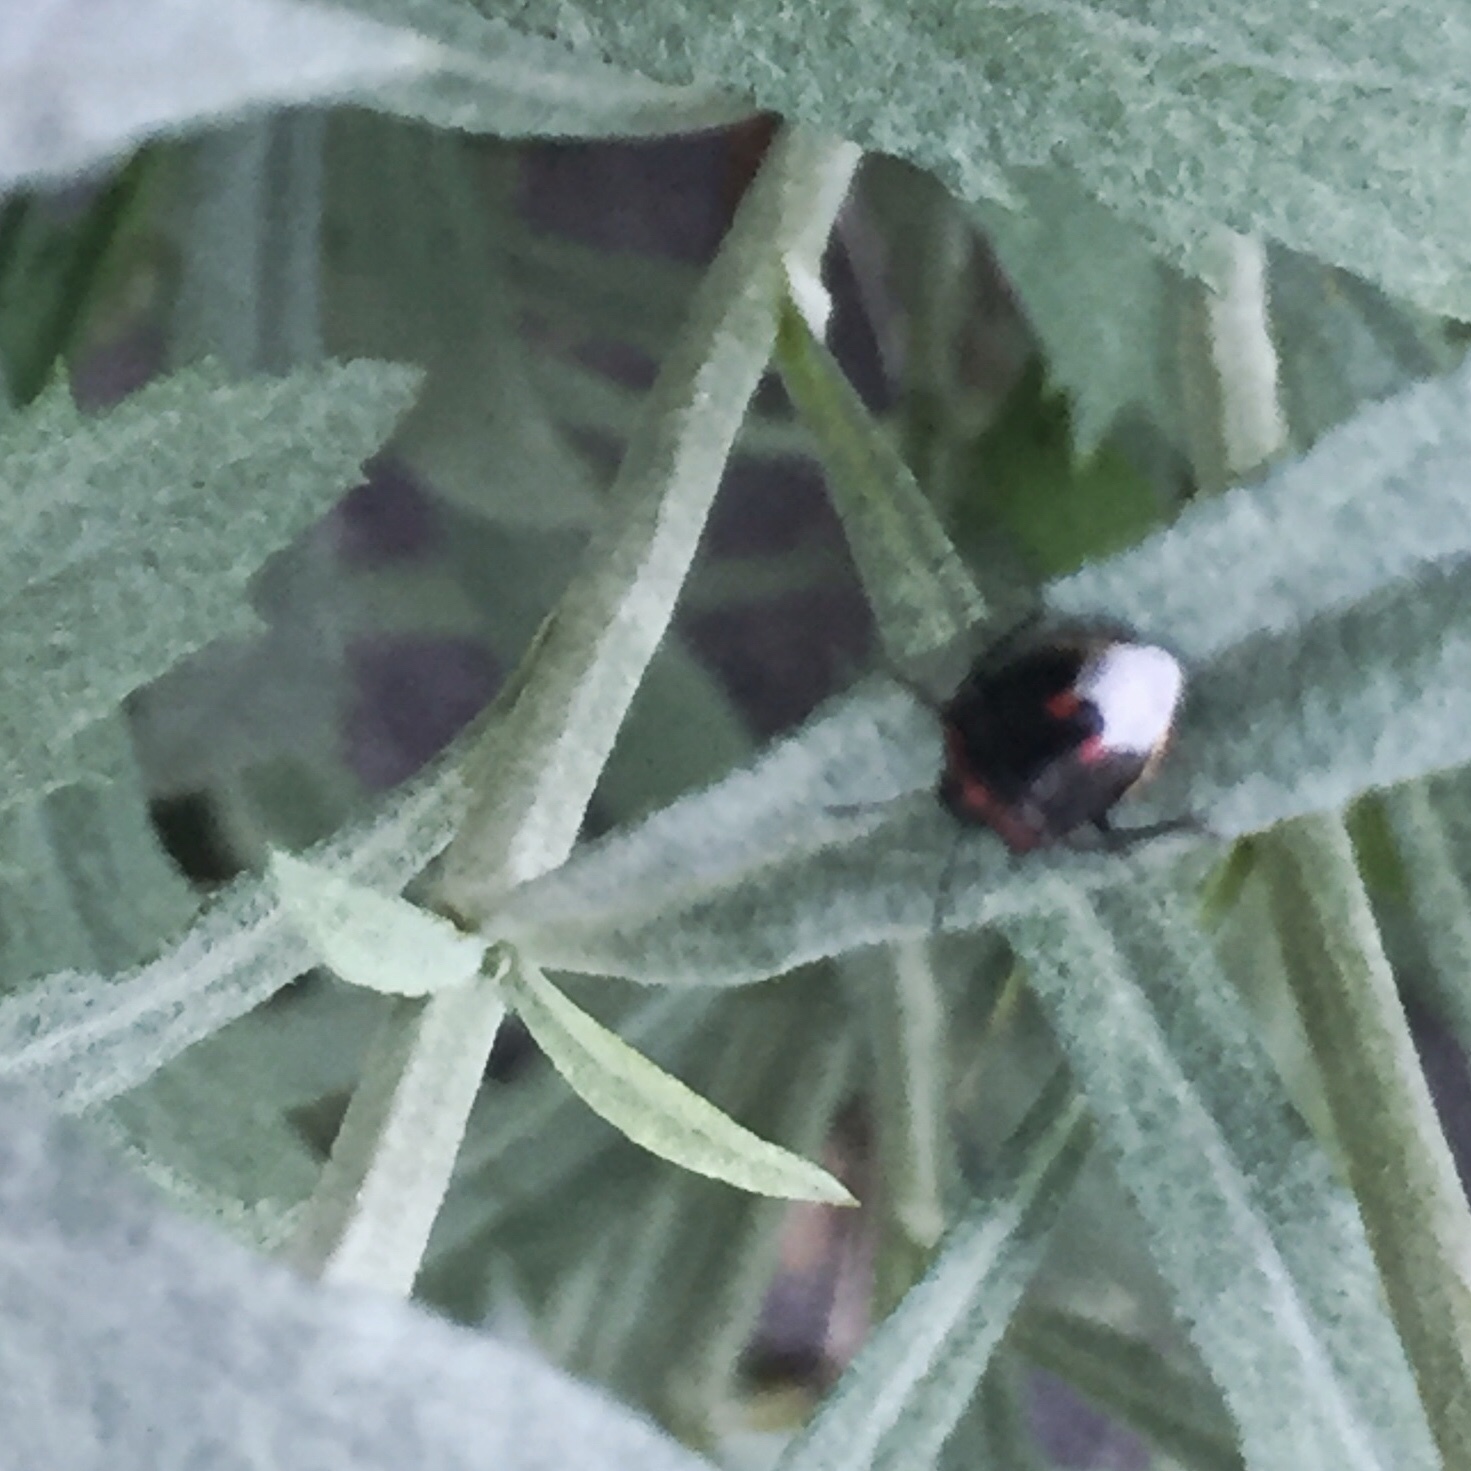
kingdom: Animalia
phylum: Arthropoda
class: Insecta
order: Hemiptera
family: Pentatomidae
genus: Cosmopepla
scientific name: Cosmopepla lintneriana
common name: Twice-stabbed stink bug
